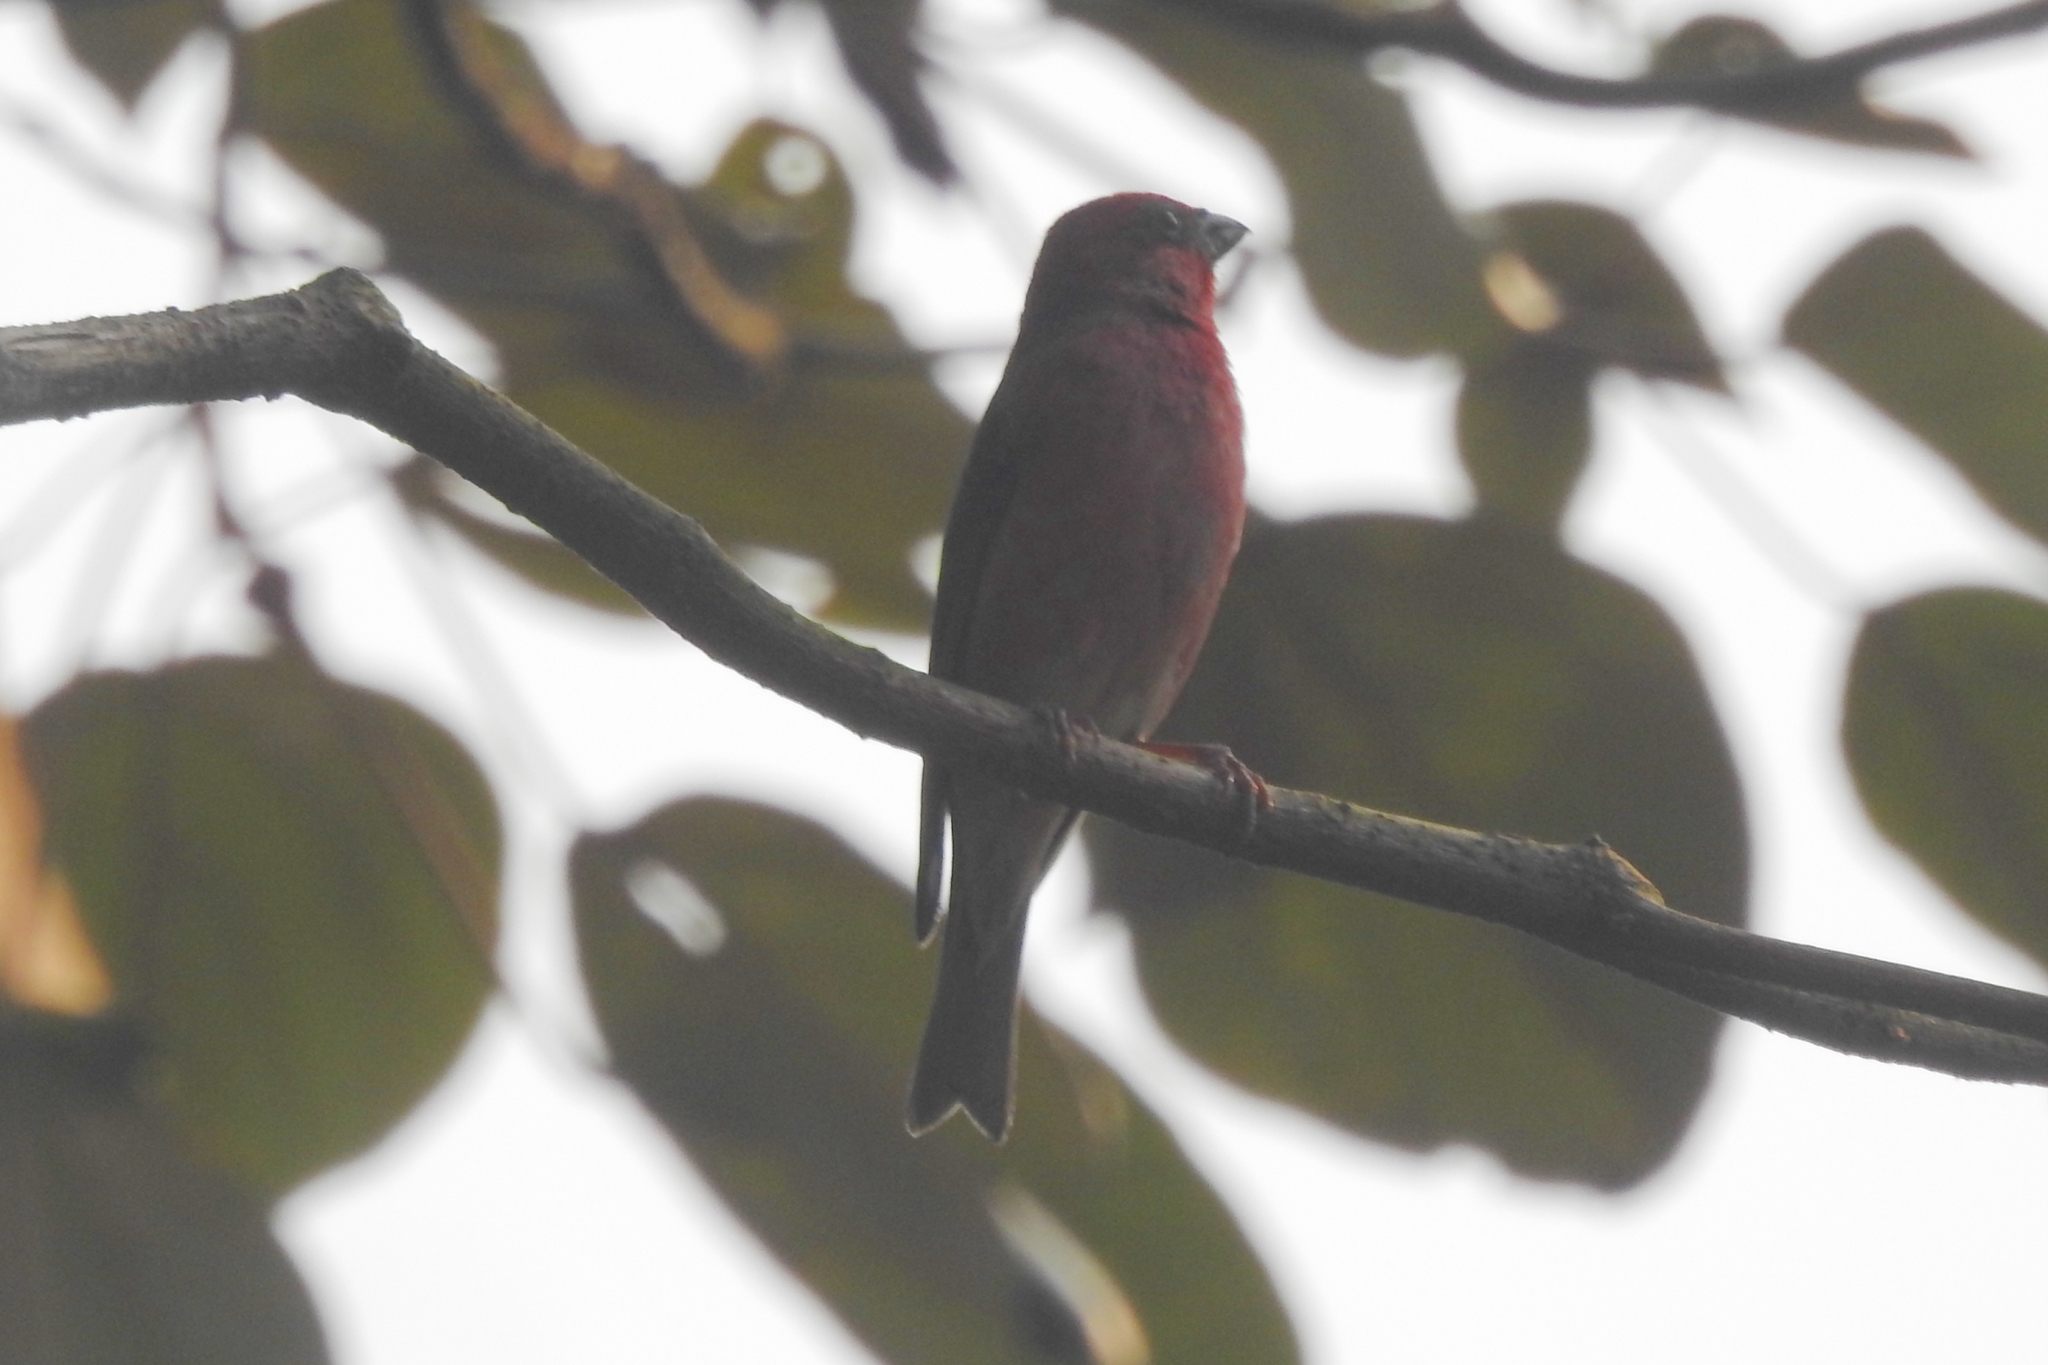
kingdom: Animalia
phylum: Chordata
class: Aves
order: Passeriformes
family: Fringillidae
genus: Carpodacus
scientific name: Carpodacus erythrinus
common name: Common rosefinch
